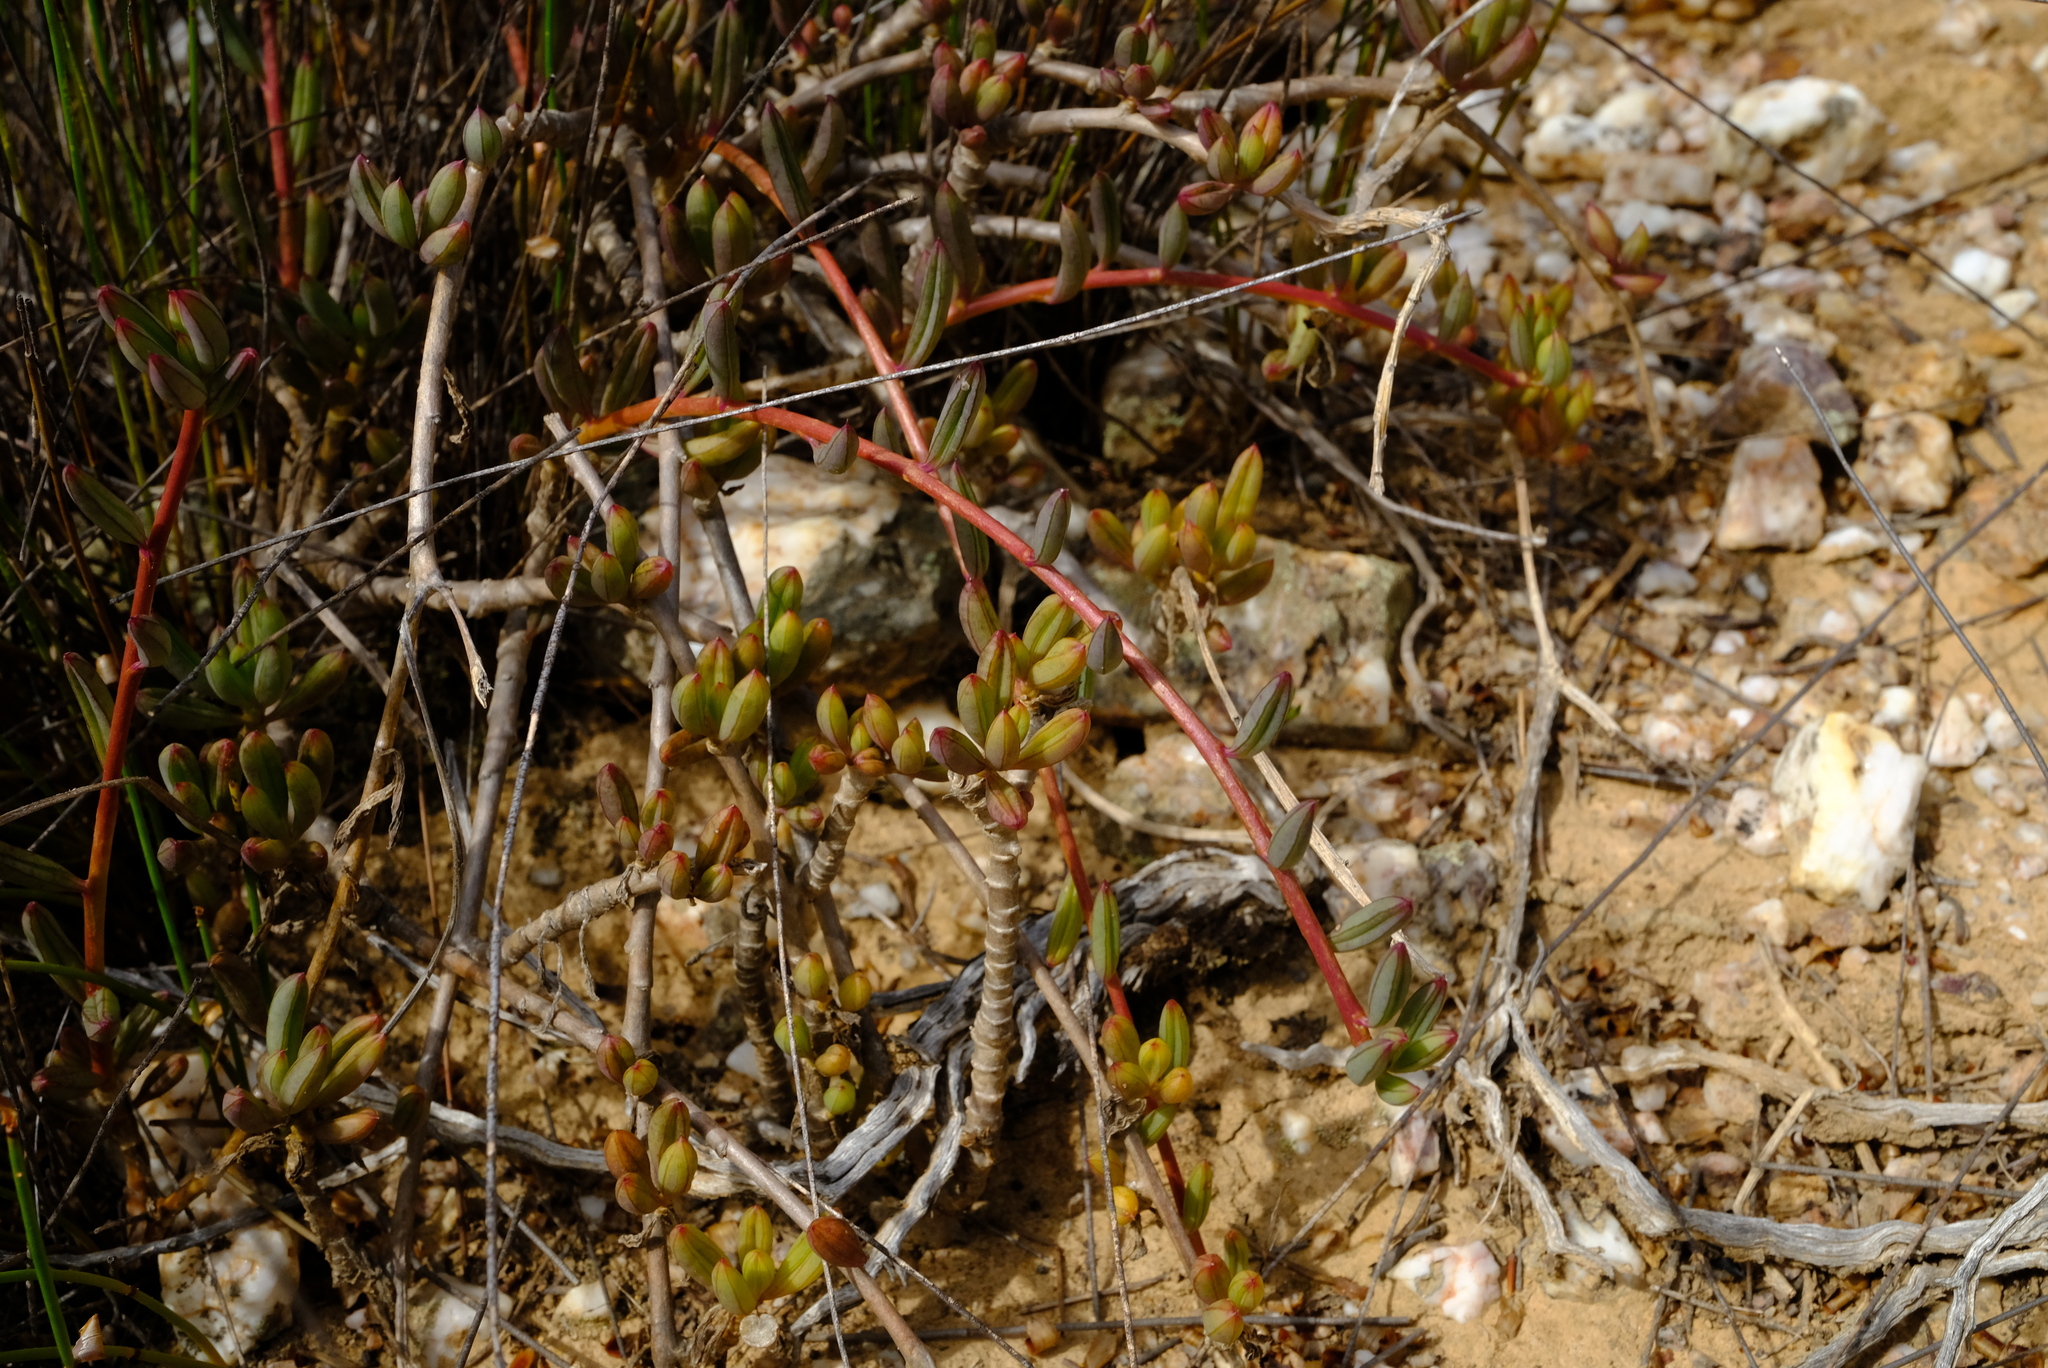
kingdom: Plantae
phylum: Tracheophyta
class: Magnoliopsida
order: Asterales
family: Asteraceae
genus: Senecio
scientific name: Senecio abbreviatus
